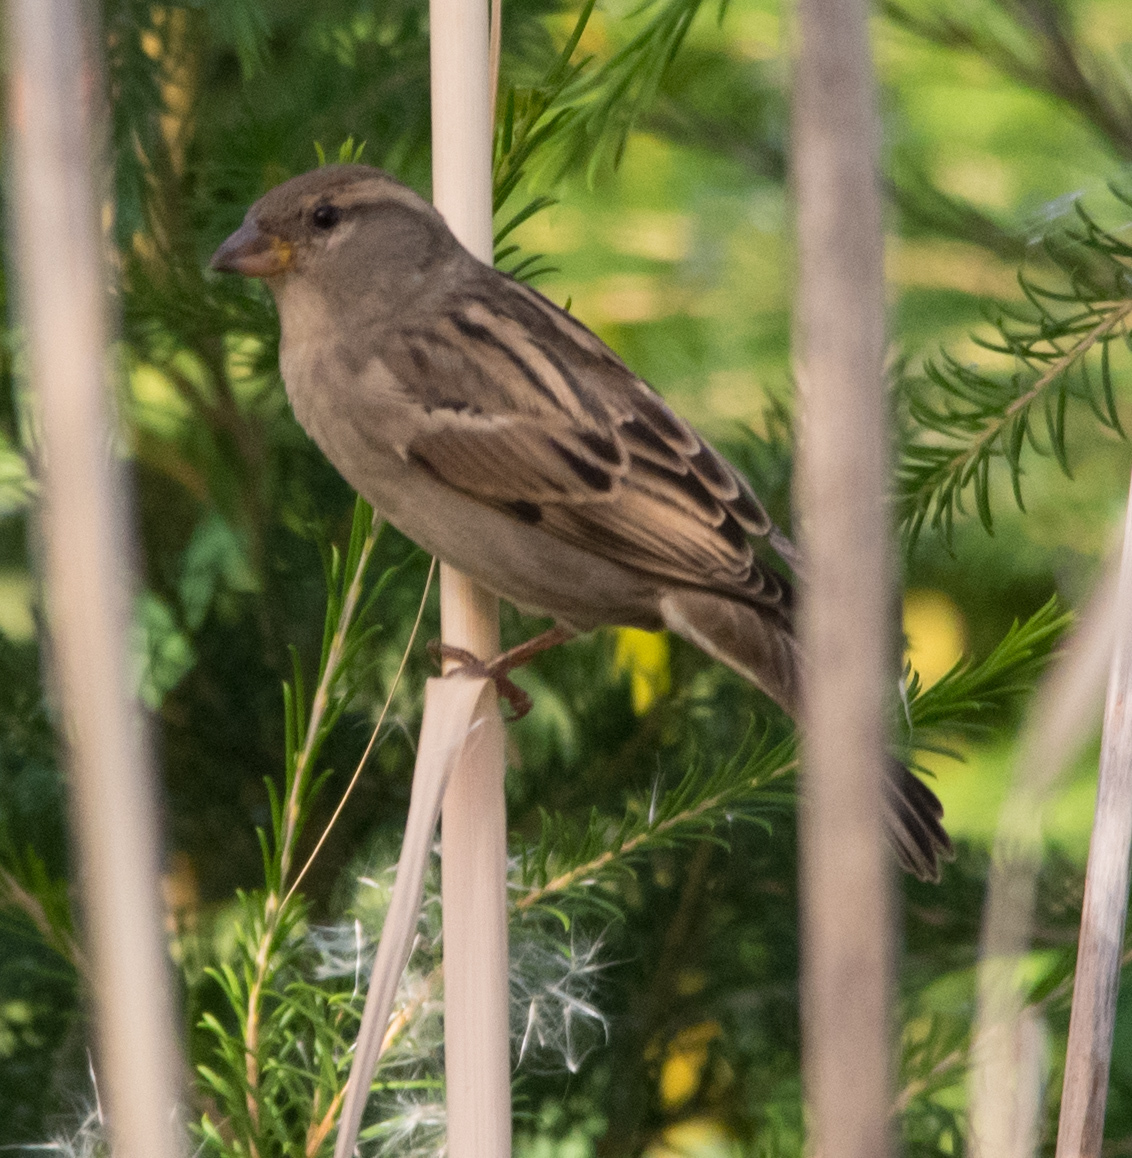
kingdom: Animalia
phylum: Chordata
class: Aves
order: Passeriformes
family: Passeridae
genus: Passer
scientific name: Passer domesticus
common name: House sparrow
